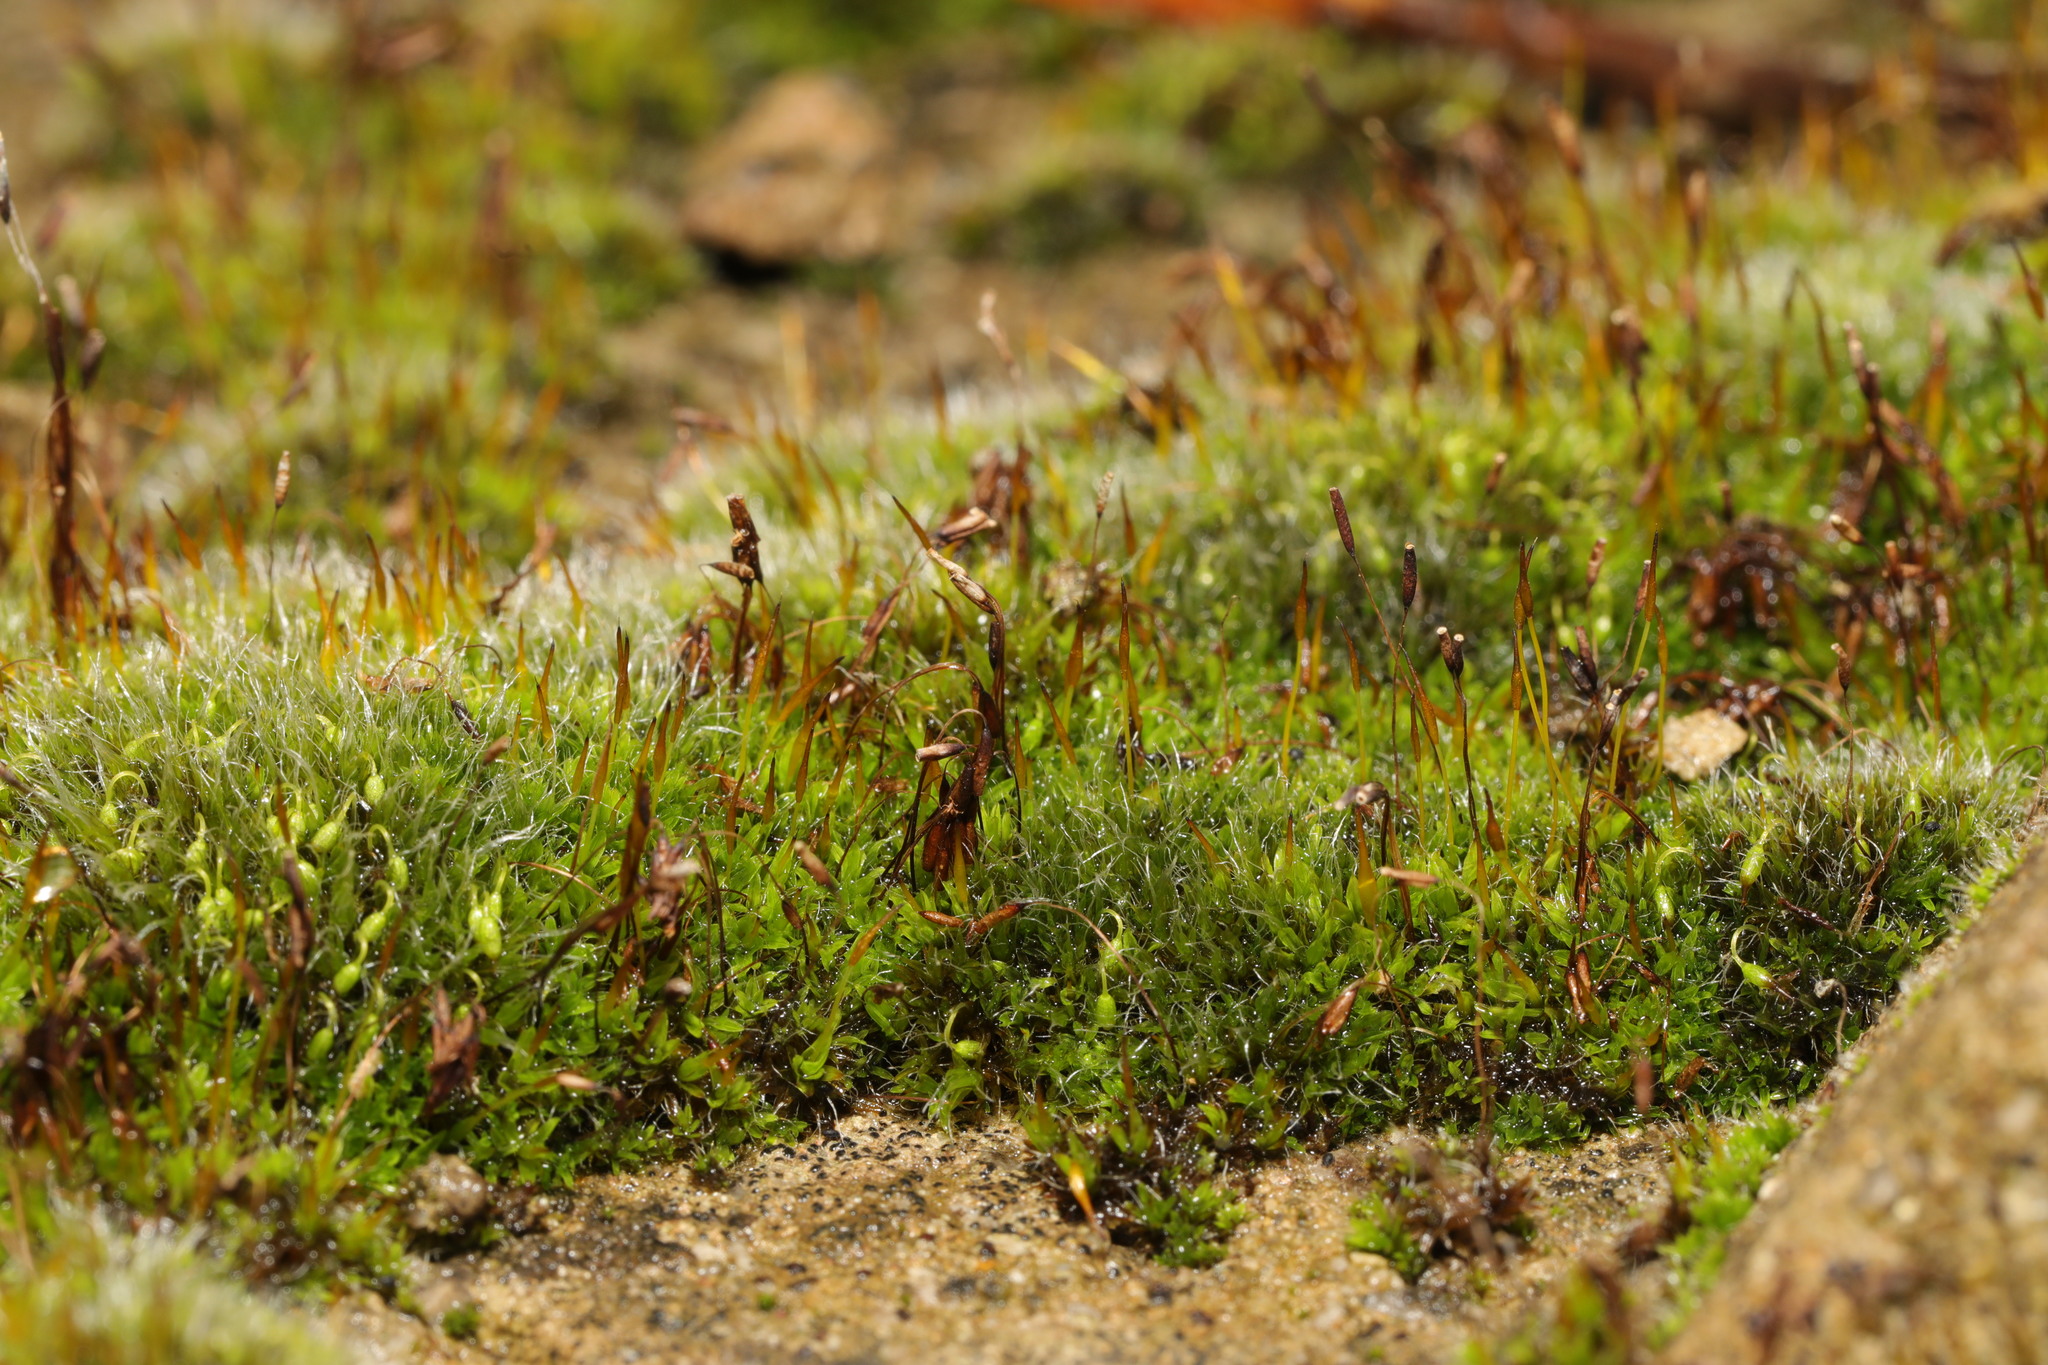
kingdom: Plantae
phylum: Bryophyta
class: Bryopsida
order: Pottiales
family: Pottiaceae
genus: Tortula
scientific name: Tortula muralis
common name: Wall screw-moss
